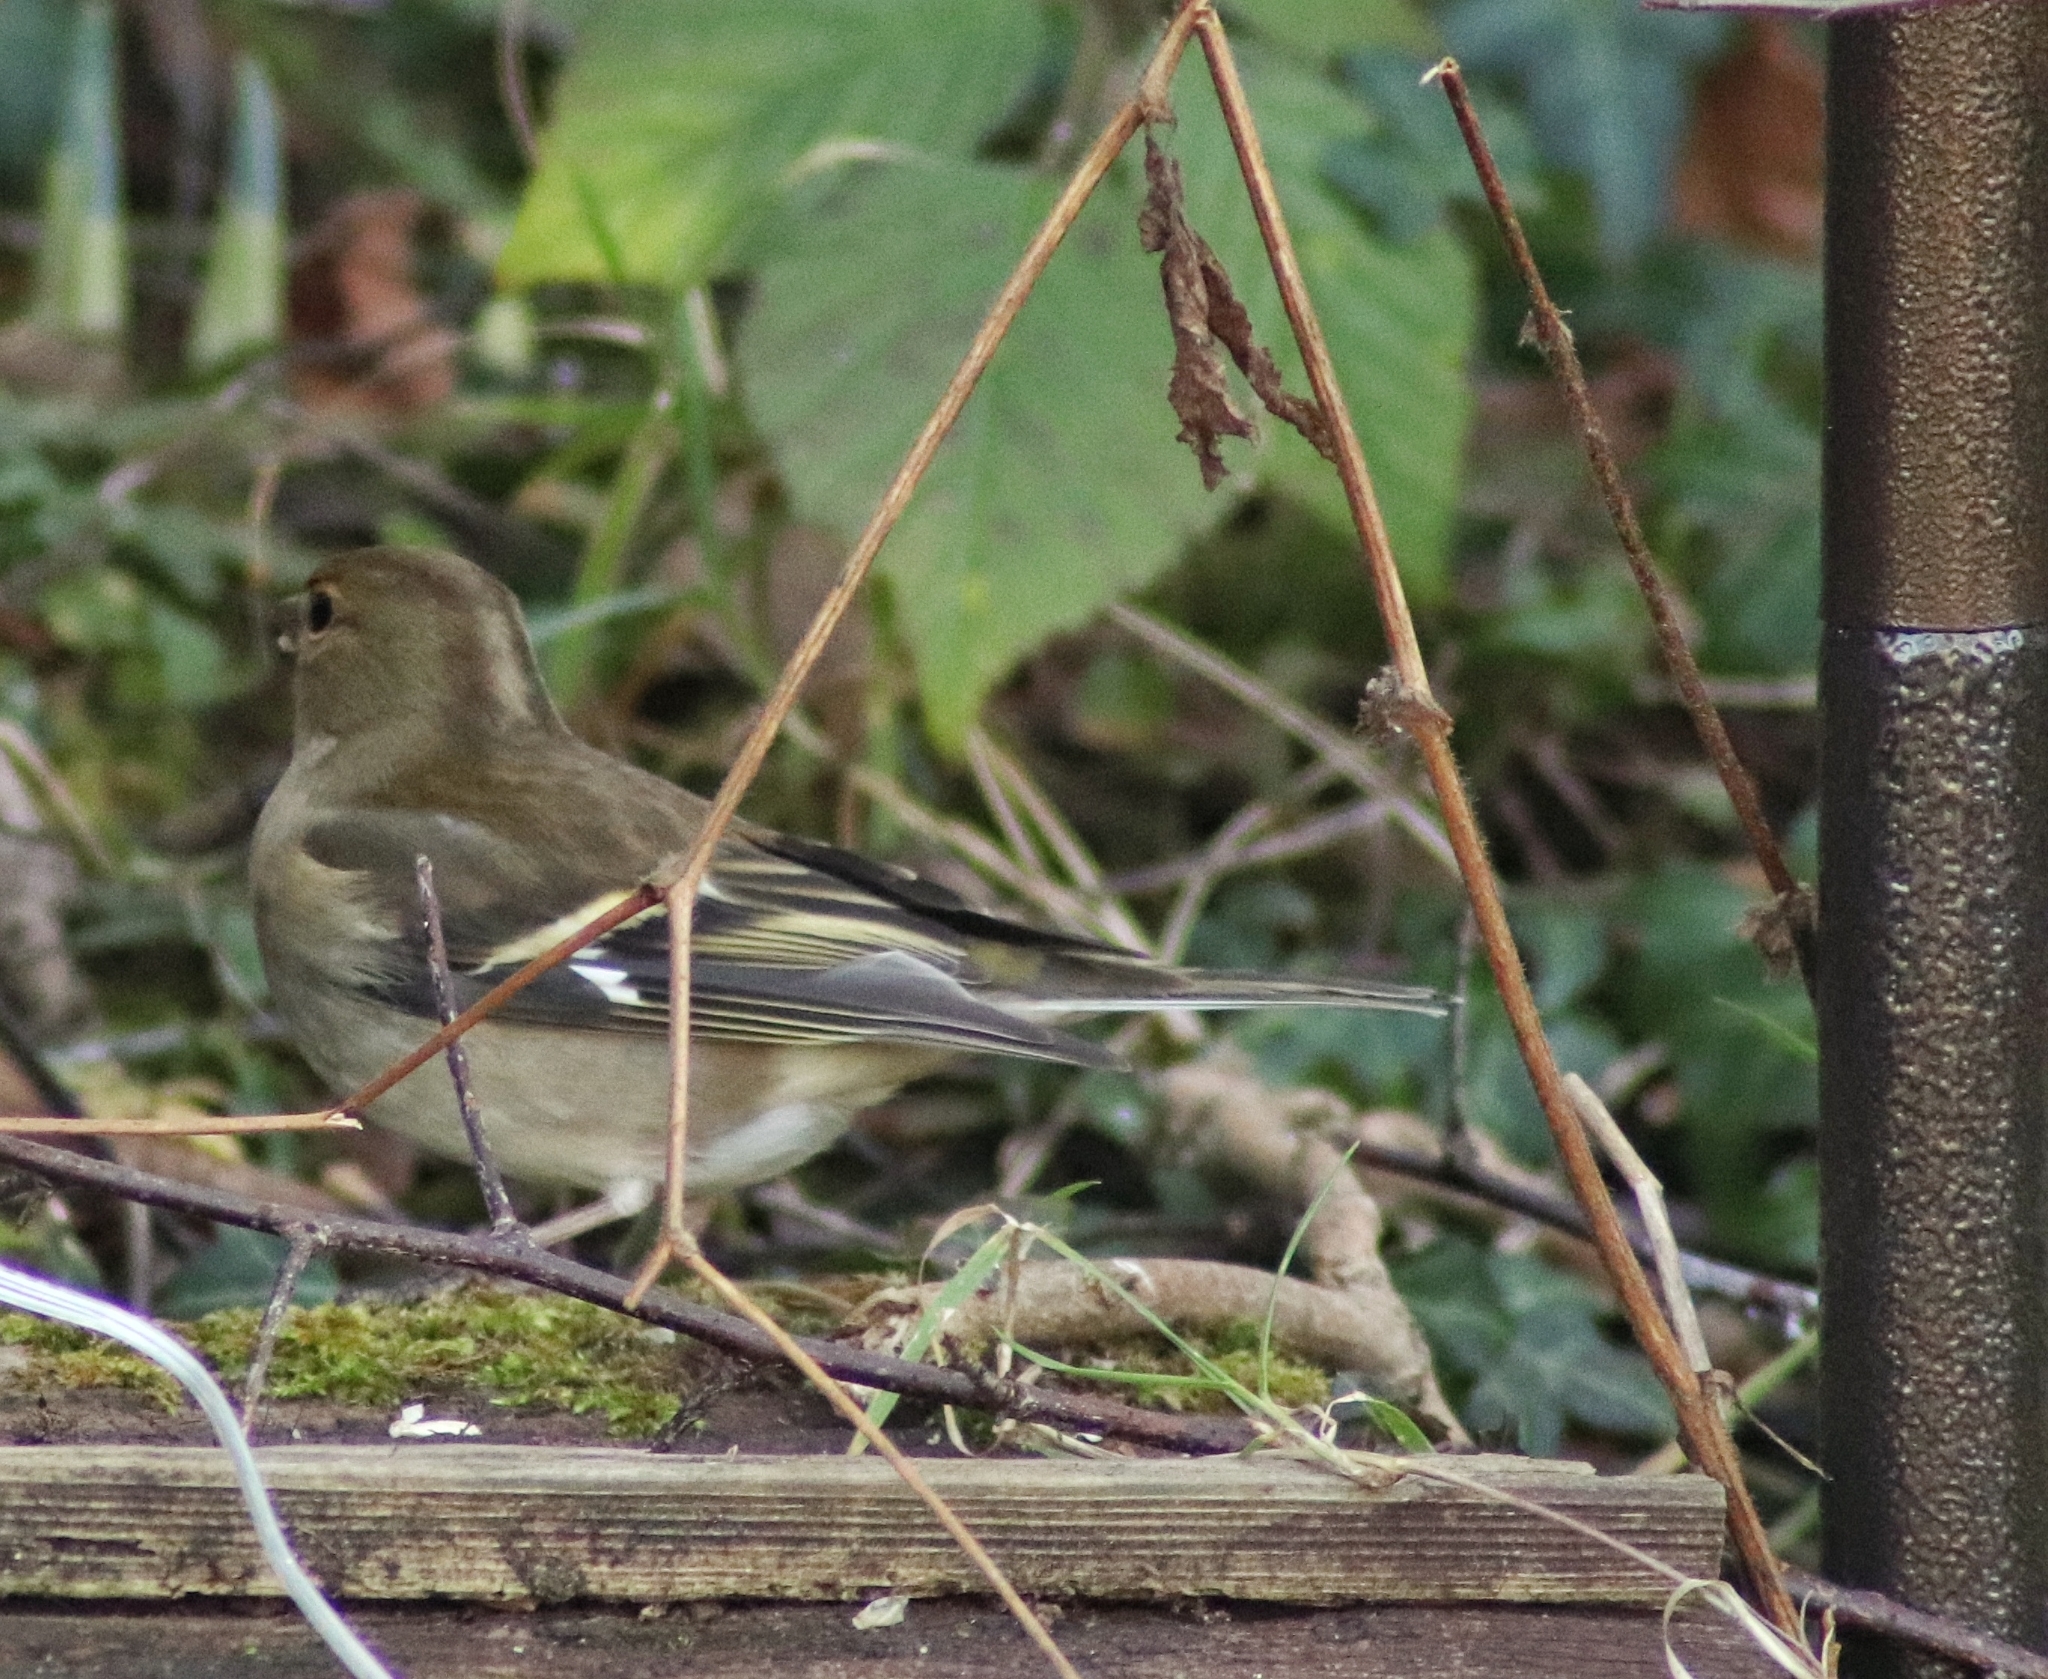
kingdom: Animalia
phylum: Chordata
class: Aves
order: Passeriformes
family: Fringillidae
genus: Fringilla
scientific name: Fringilla coelebs
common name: Common chaffinch
